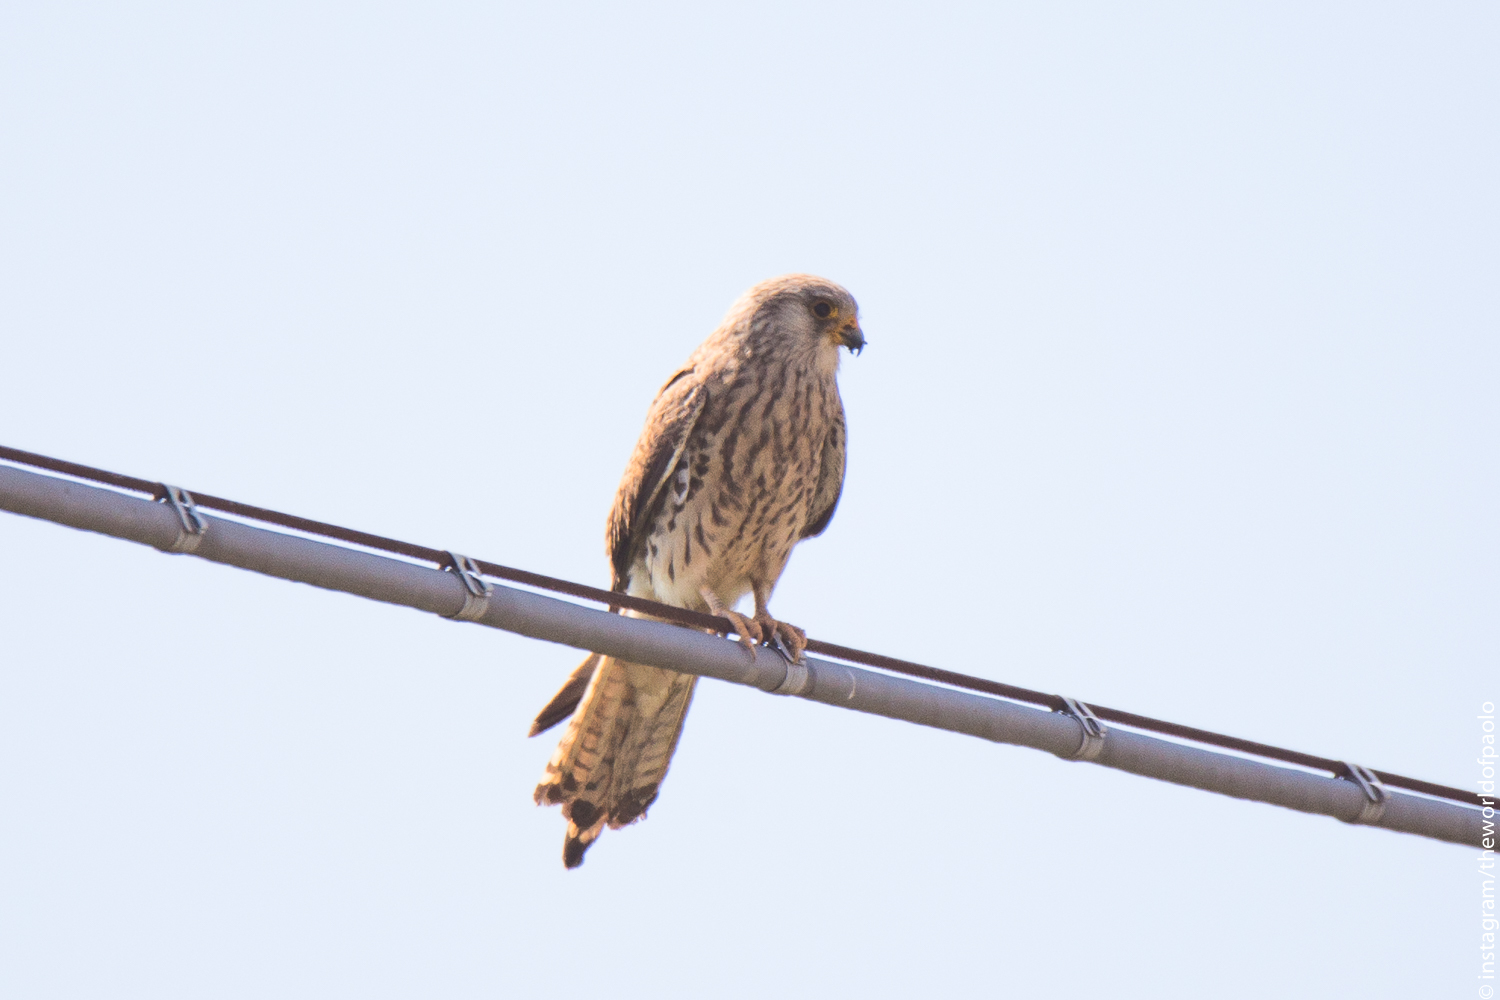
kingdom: Animalia
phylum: Chordata
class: Aves
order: Falconiformes
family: Falconidae
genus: Falco
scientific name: Falco naumanni
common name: Lesser kestrel
